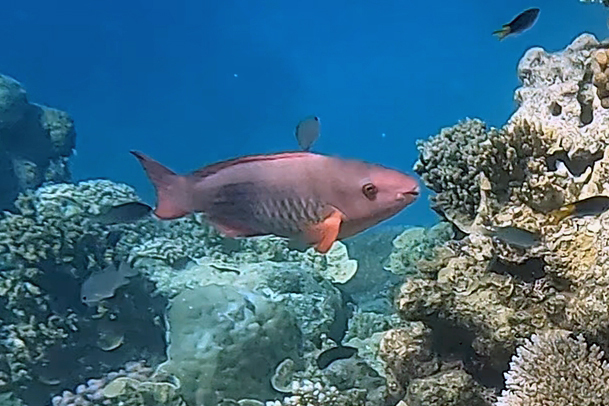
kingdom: Animalia
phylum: Chordata
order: Perciformes
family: Scaridae
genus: Scarus
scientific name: Scarus frenatus
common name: Bridled parrotfish
